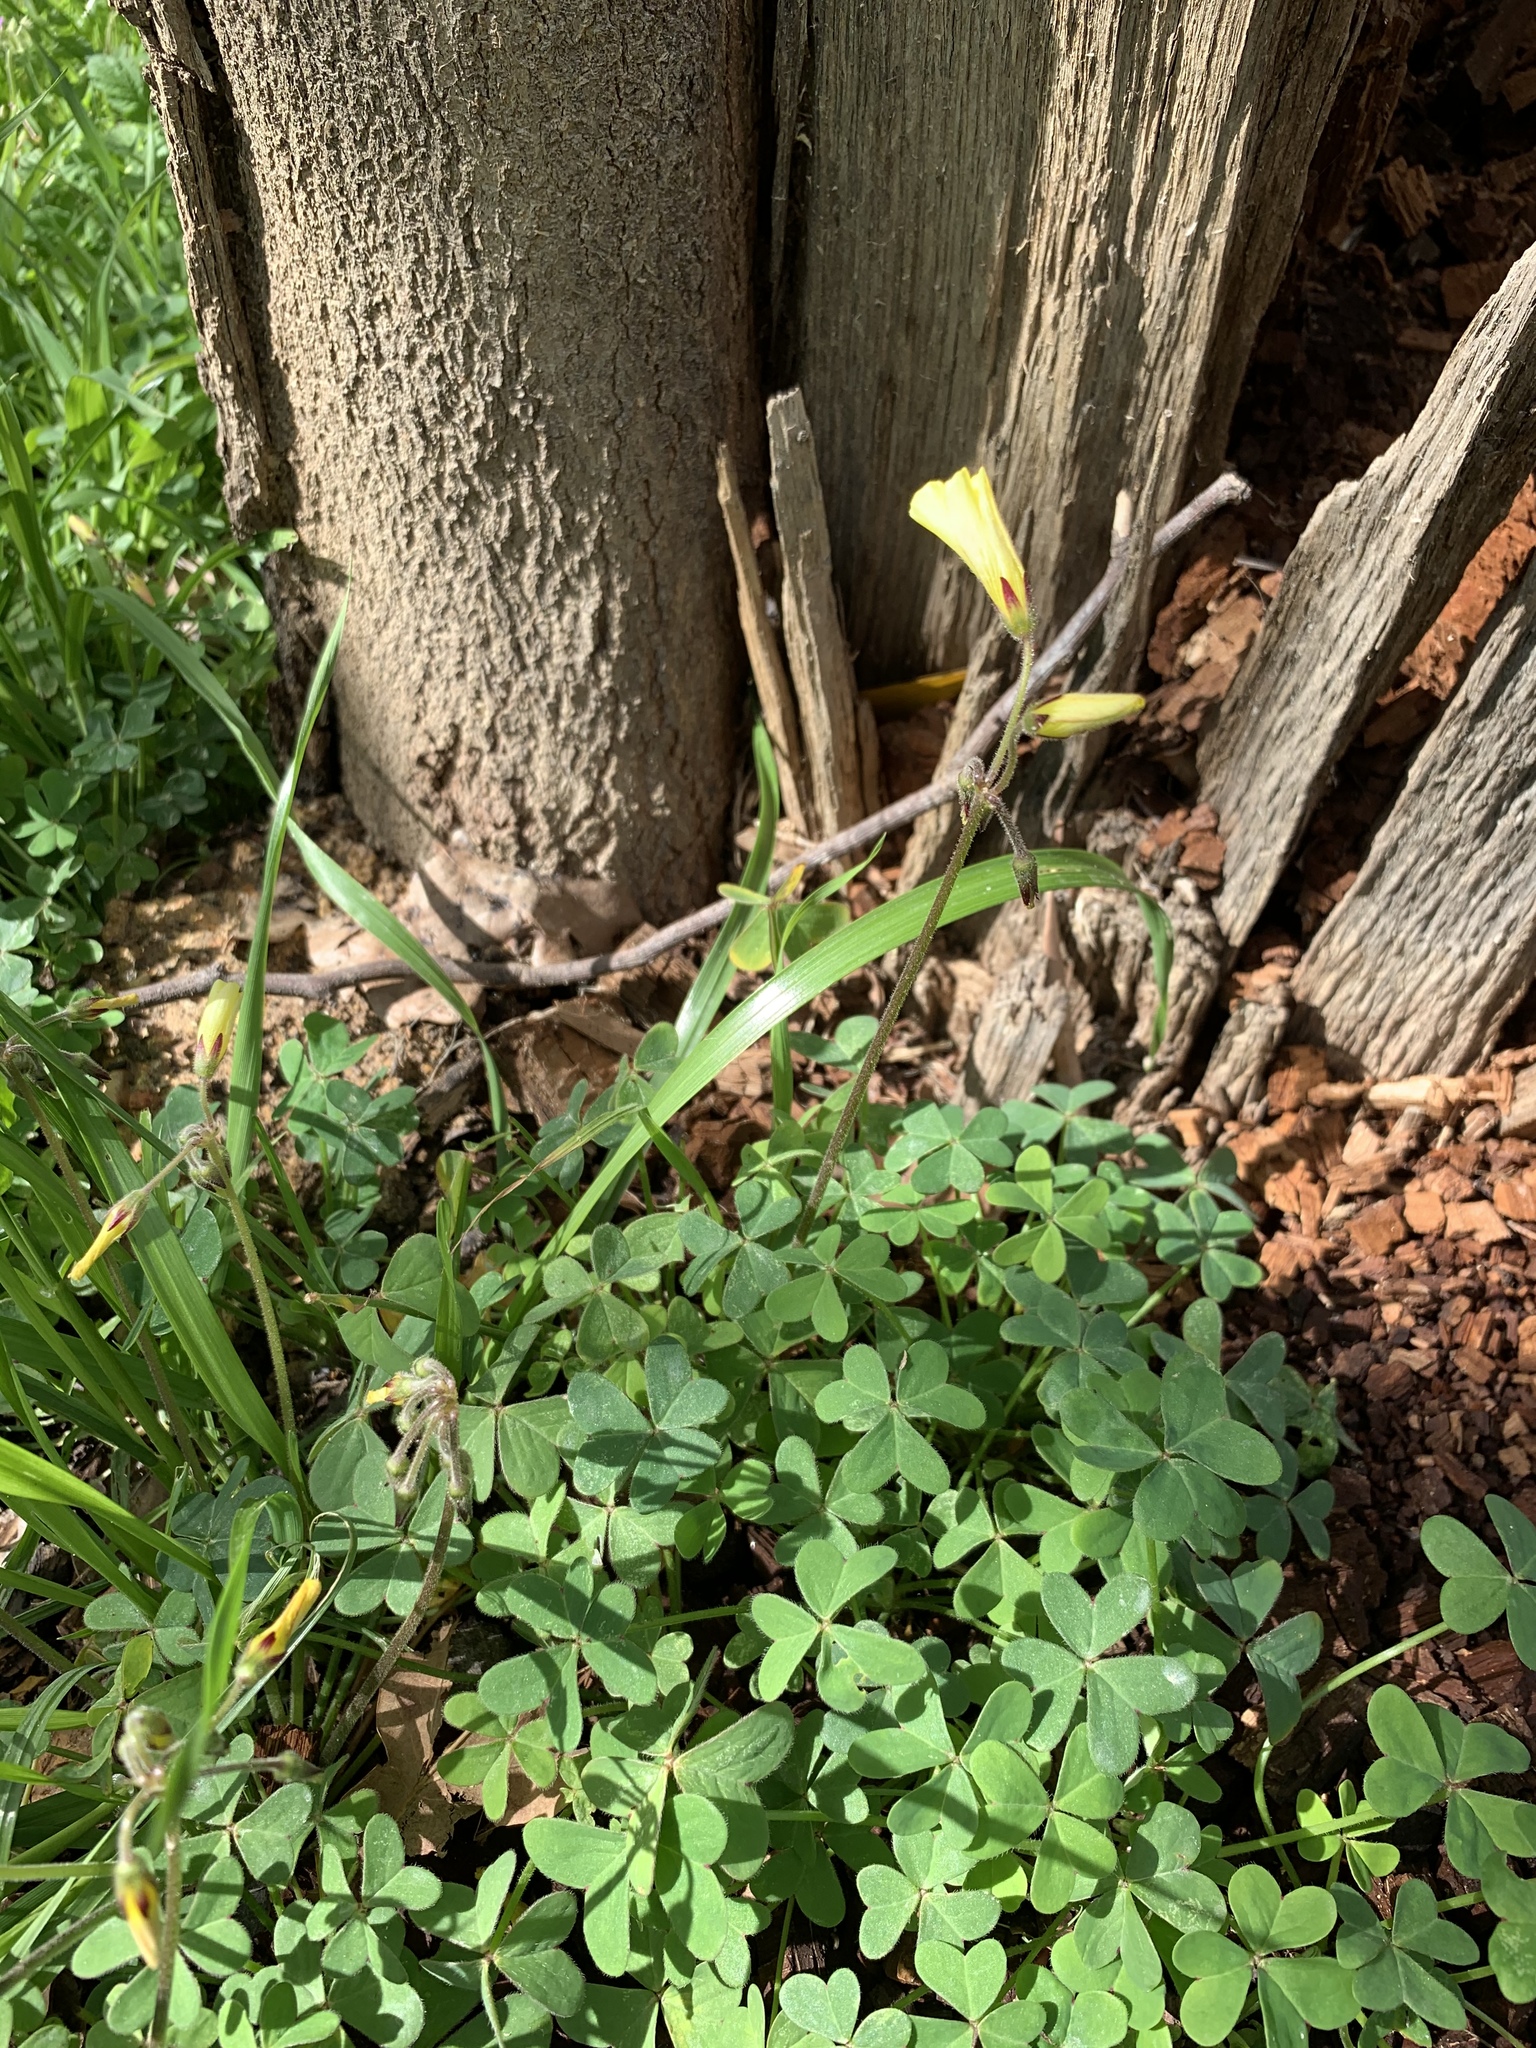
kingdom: Plantae
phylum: Tracheophyta
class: Magnoliopsida
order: Oxalidales
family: Oxalidaceae
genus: Oxalis
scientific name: Oxalis pes-caprae
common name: Bermuda-buttercup
